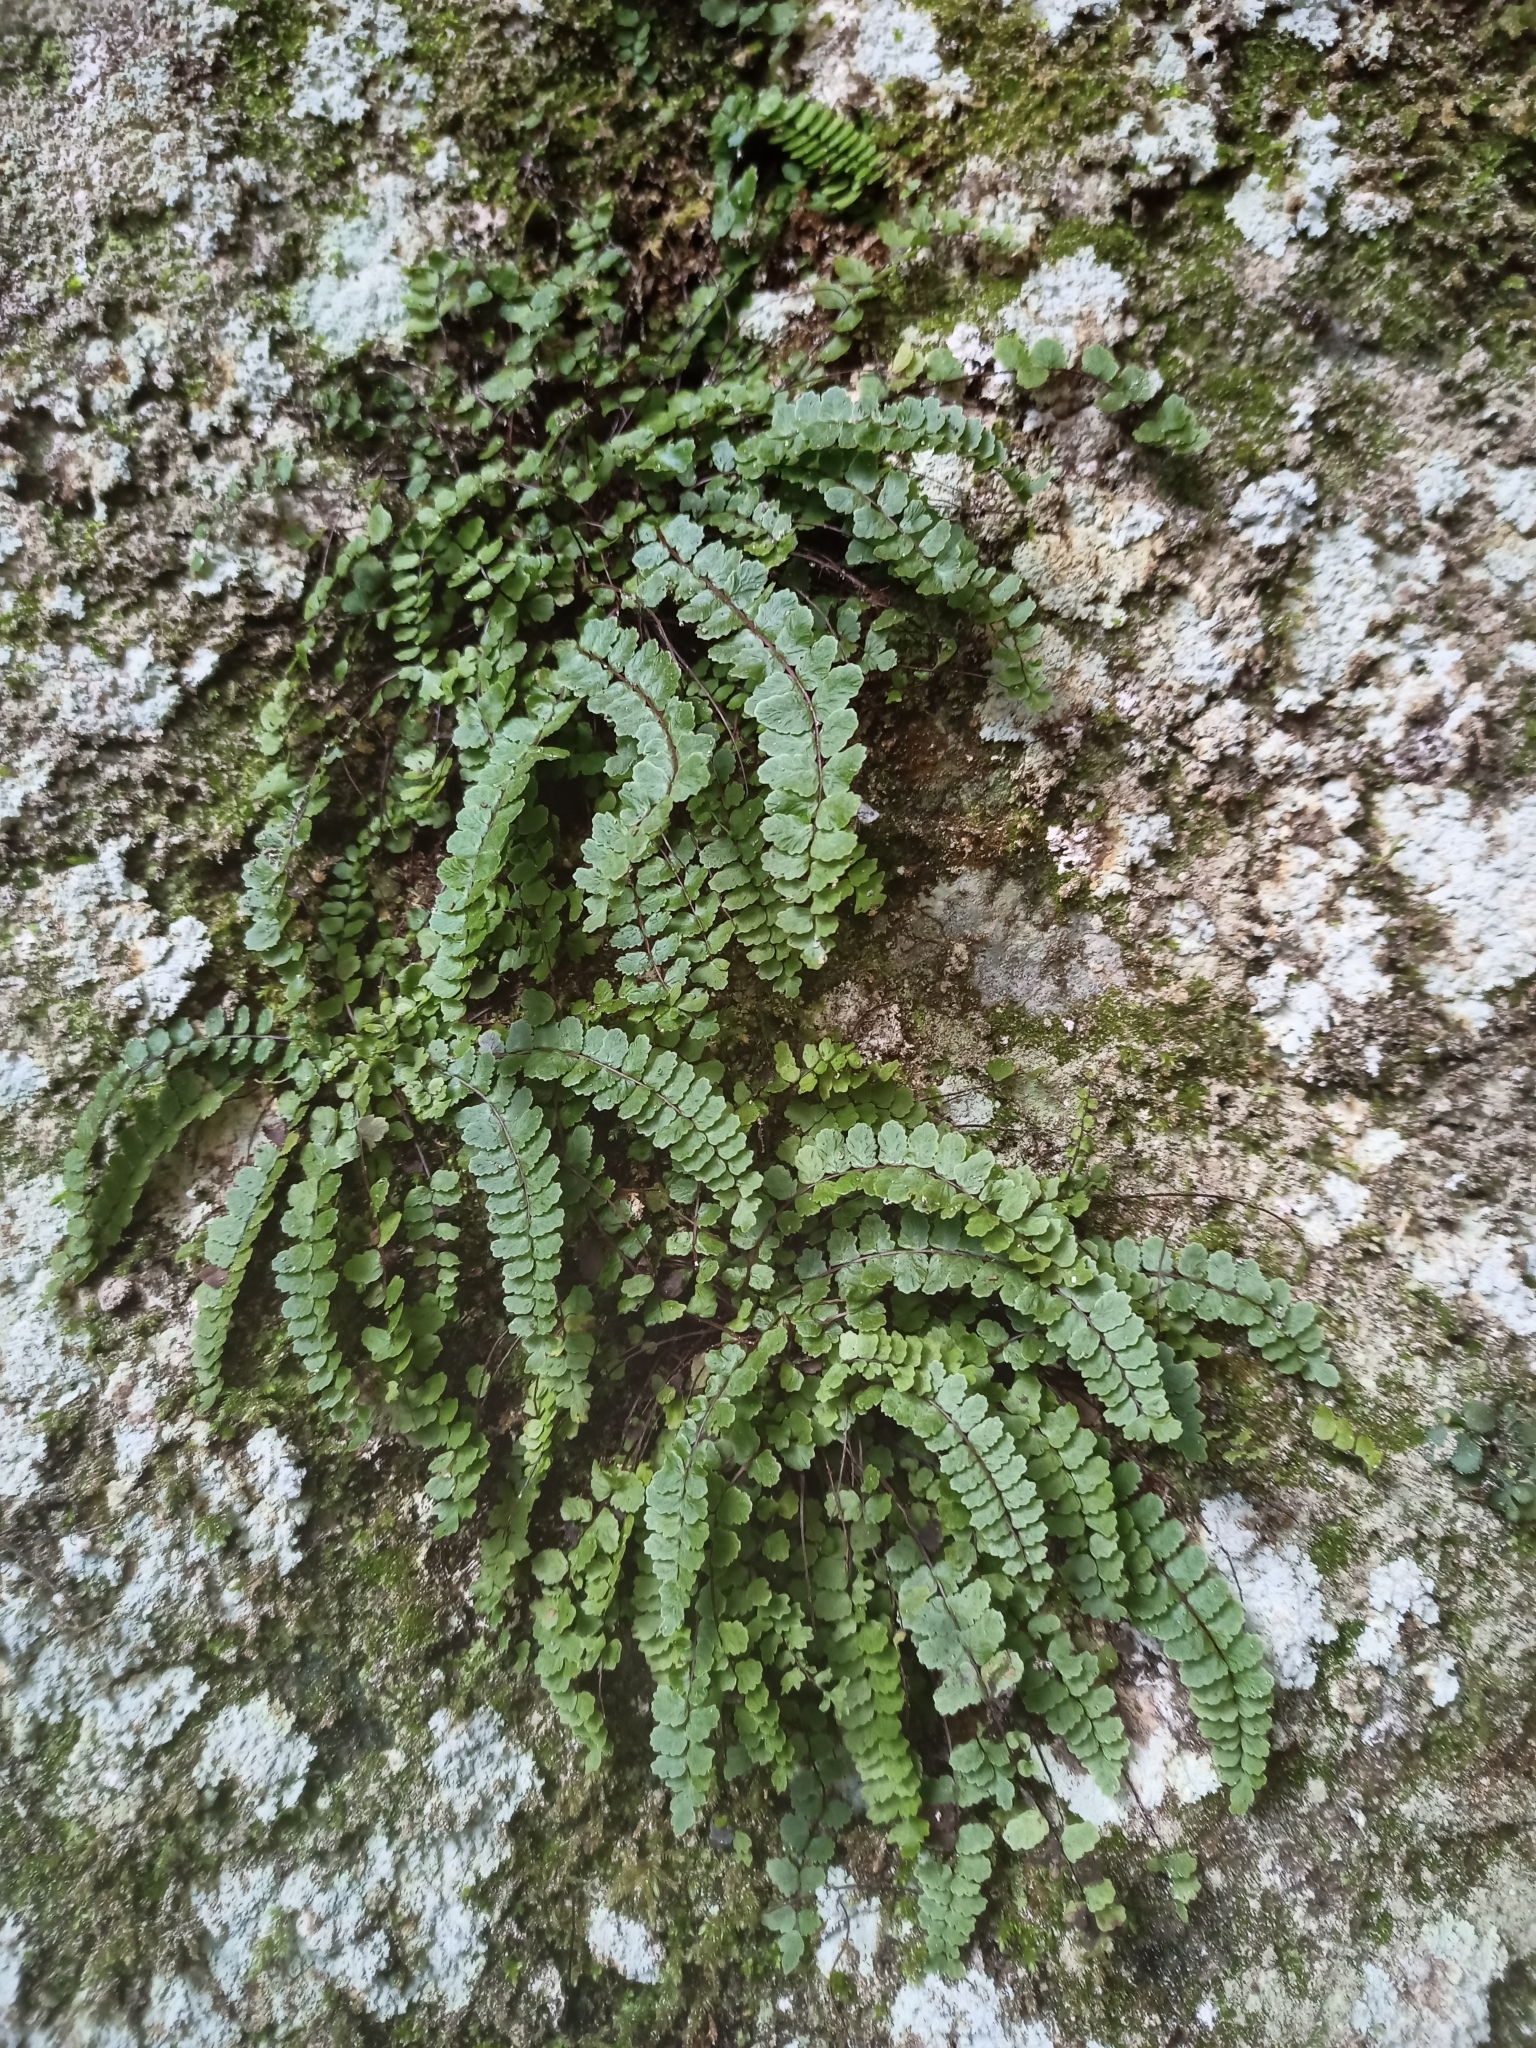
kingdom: Plantae
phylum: Tracheophyta
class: Polypodiopsida
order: Polypodiales
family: Aspleniaceae
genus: Asplenium
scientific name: Asplenium csikii
